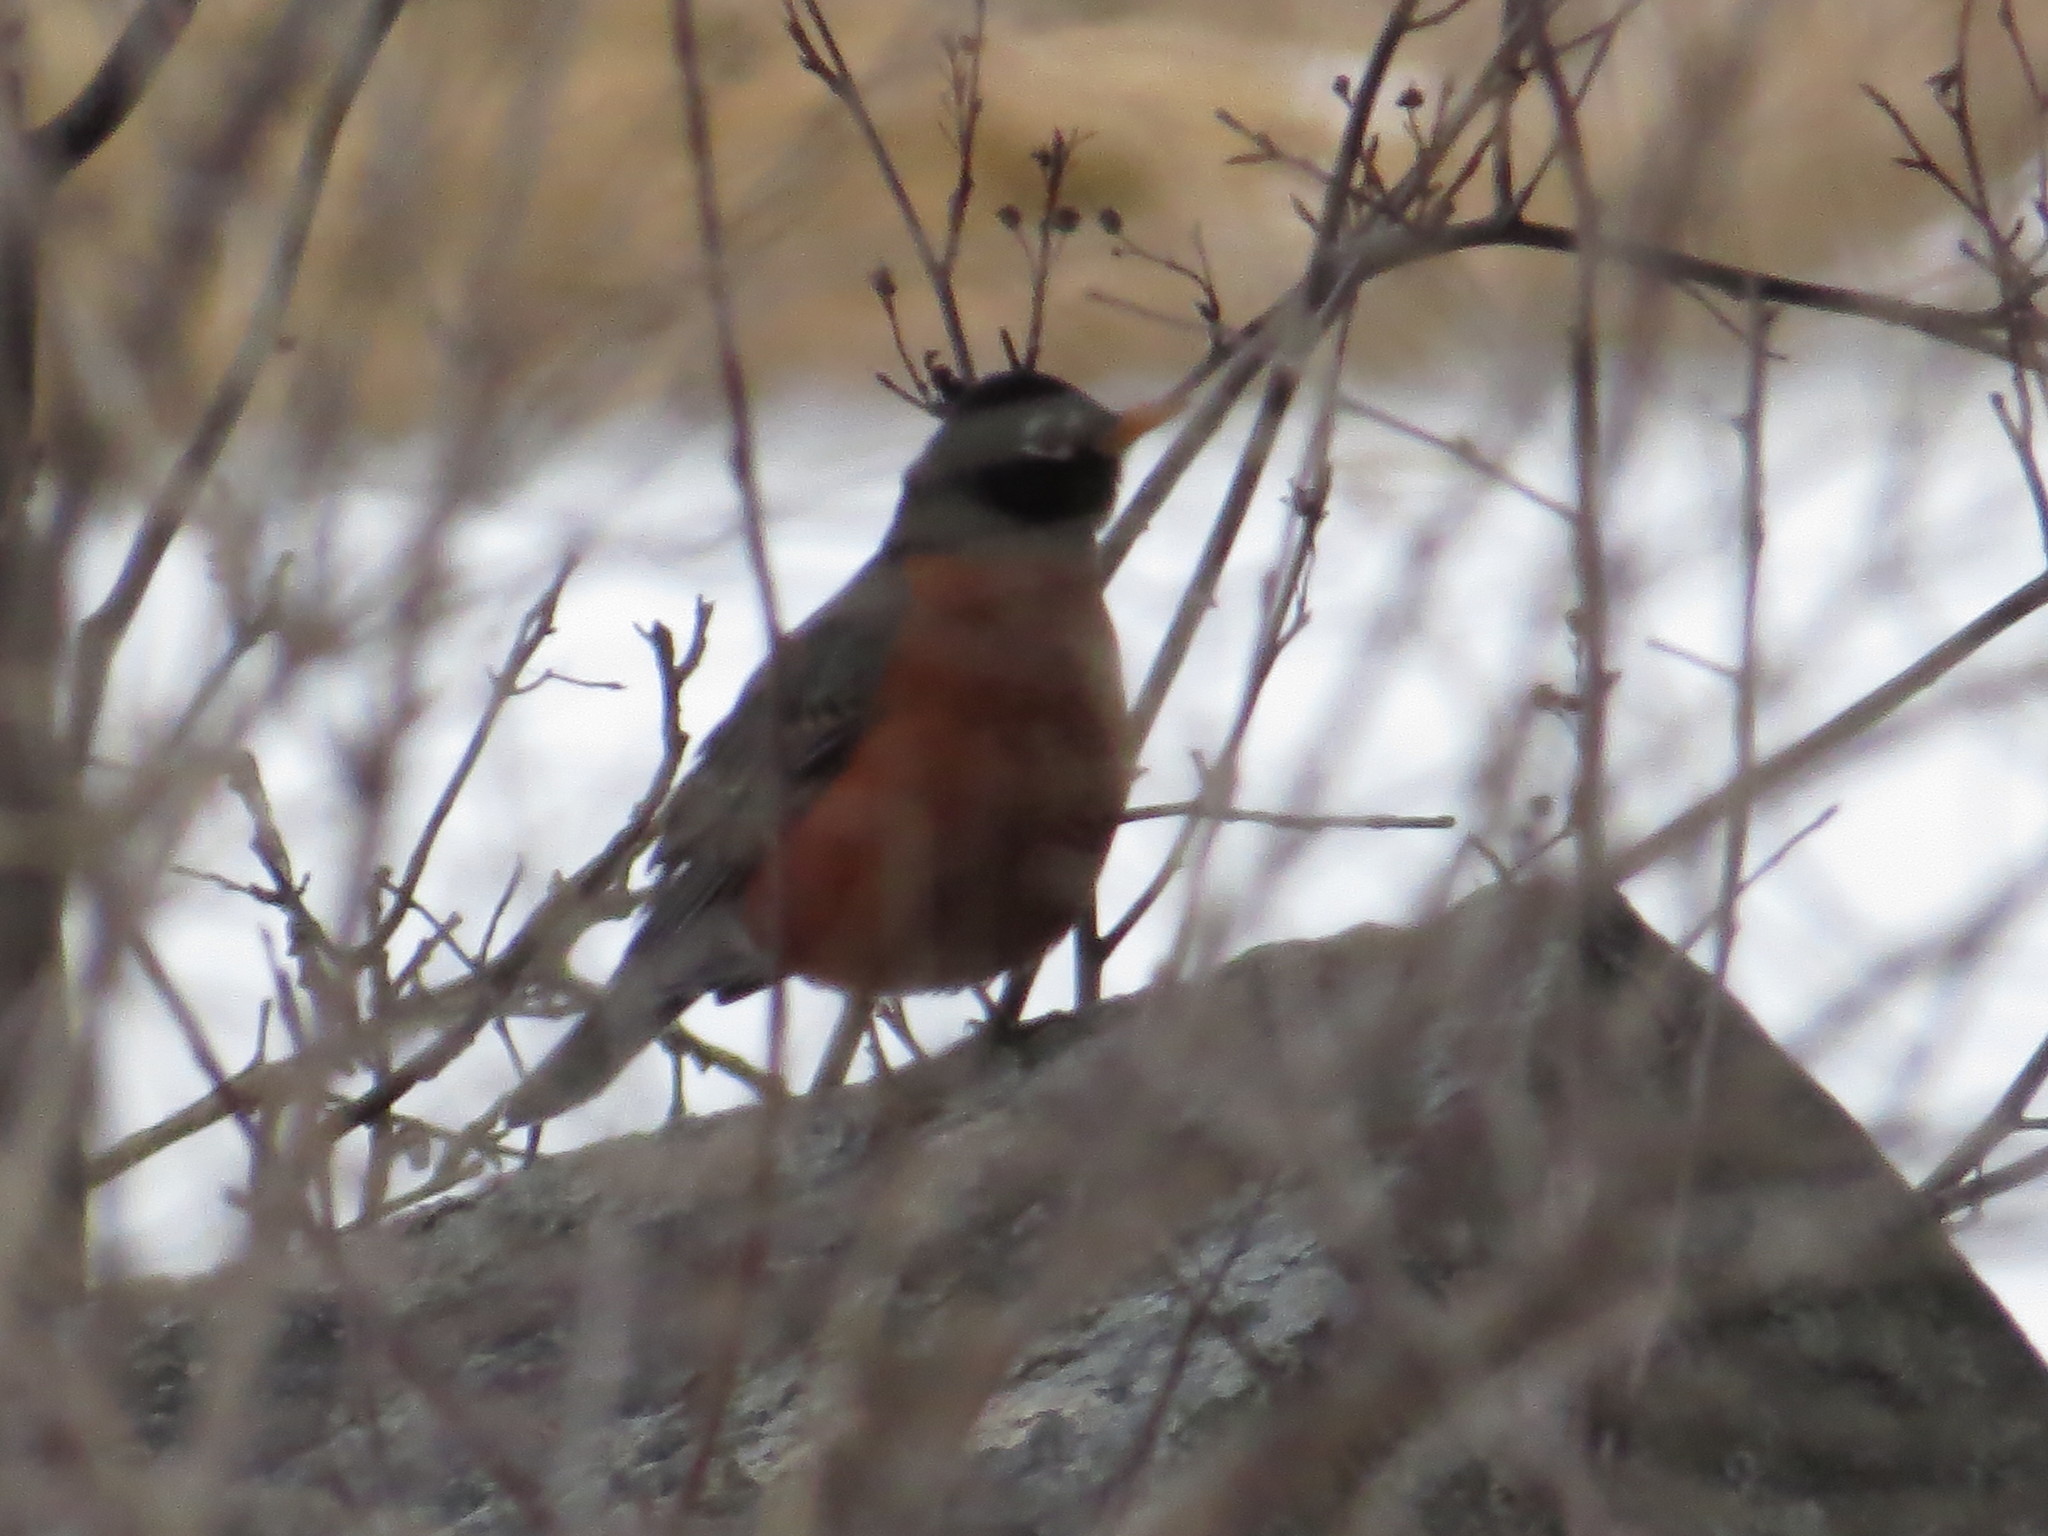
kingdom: Animalia
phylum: Chordata
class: Aves
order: Passeriformes
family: Turdidae
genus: Turdus
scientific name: Turdus migratorius
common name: American robin
